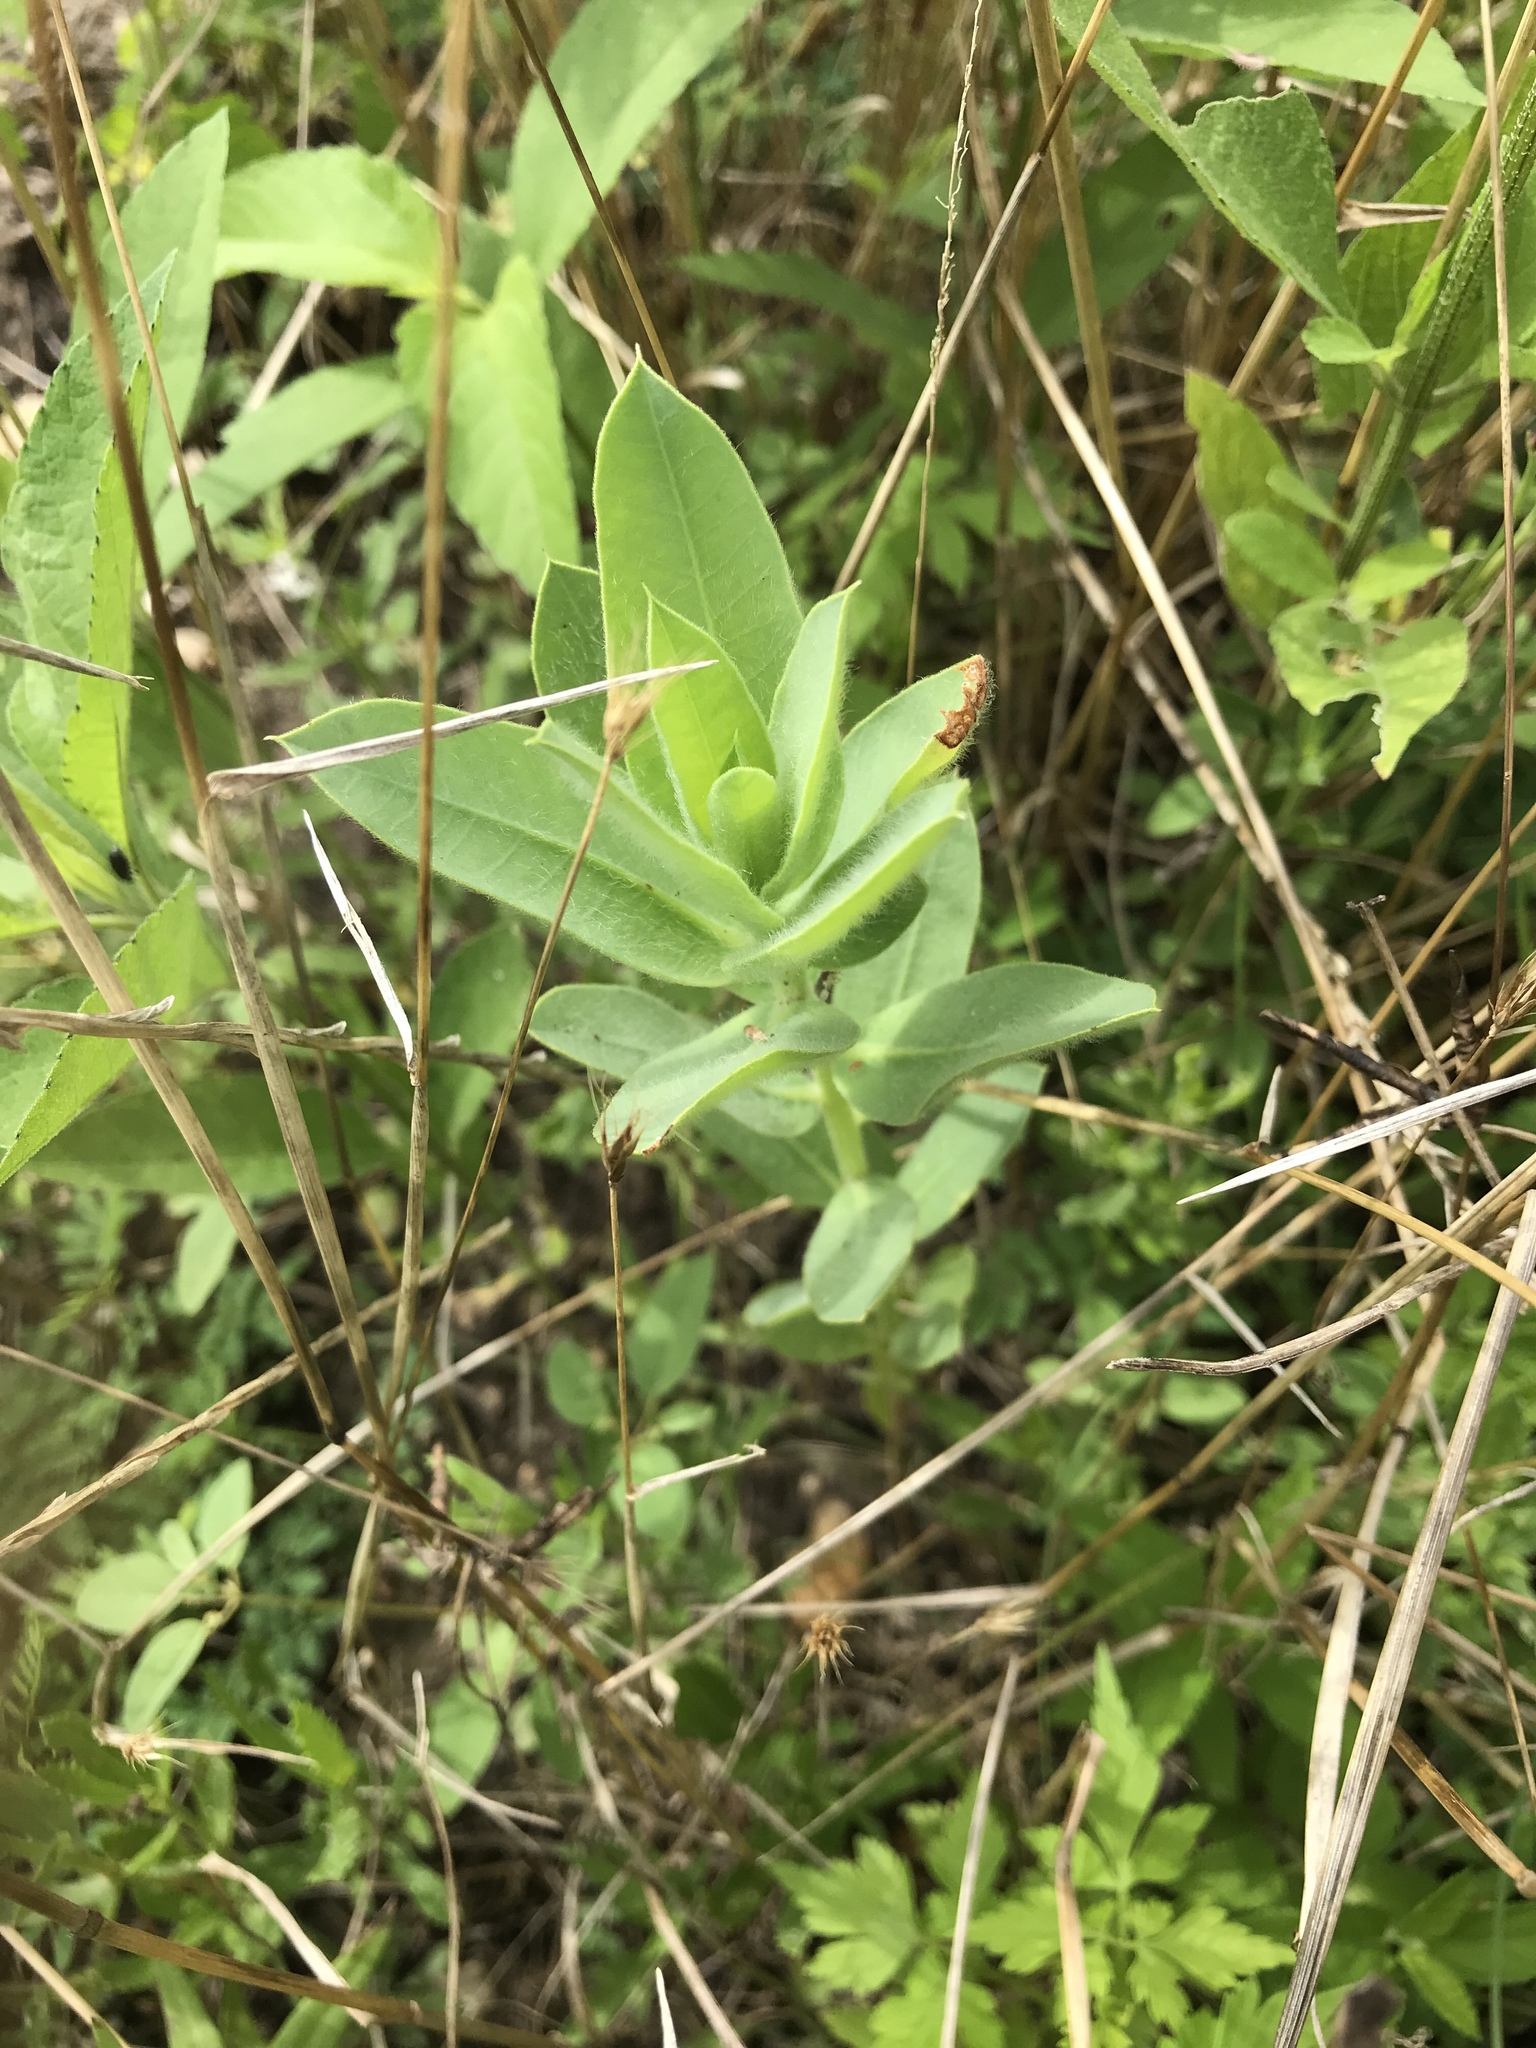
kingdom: Plantae
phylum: Tracheophyta
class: Magnoliopsida
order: Malpighiales
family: Euphorbiaceae
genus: Euphorbia
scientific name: Euphorbia marginata
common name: Ghostweed
